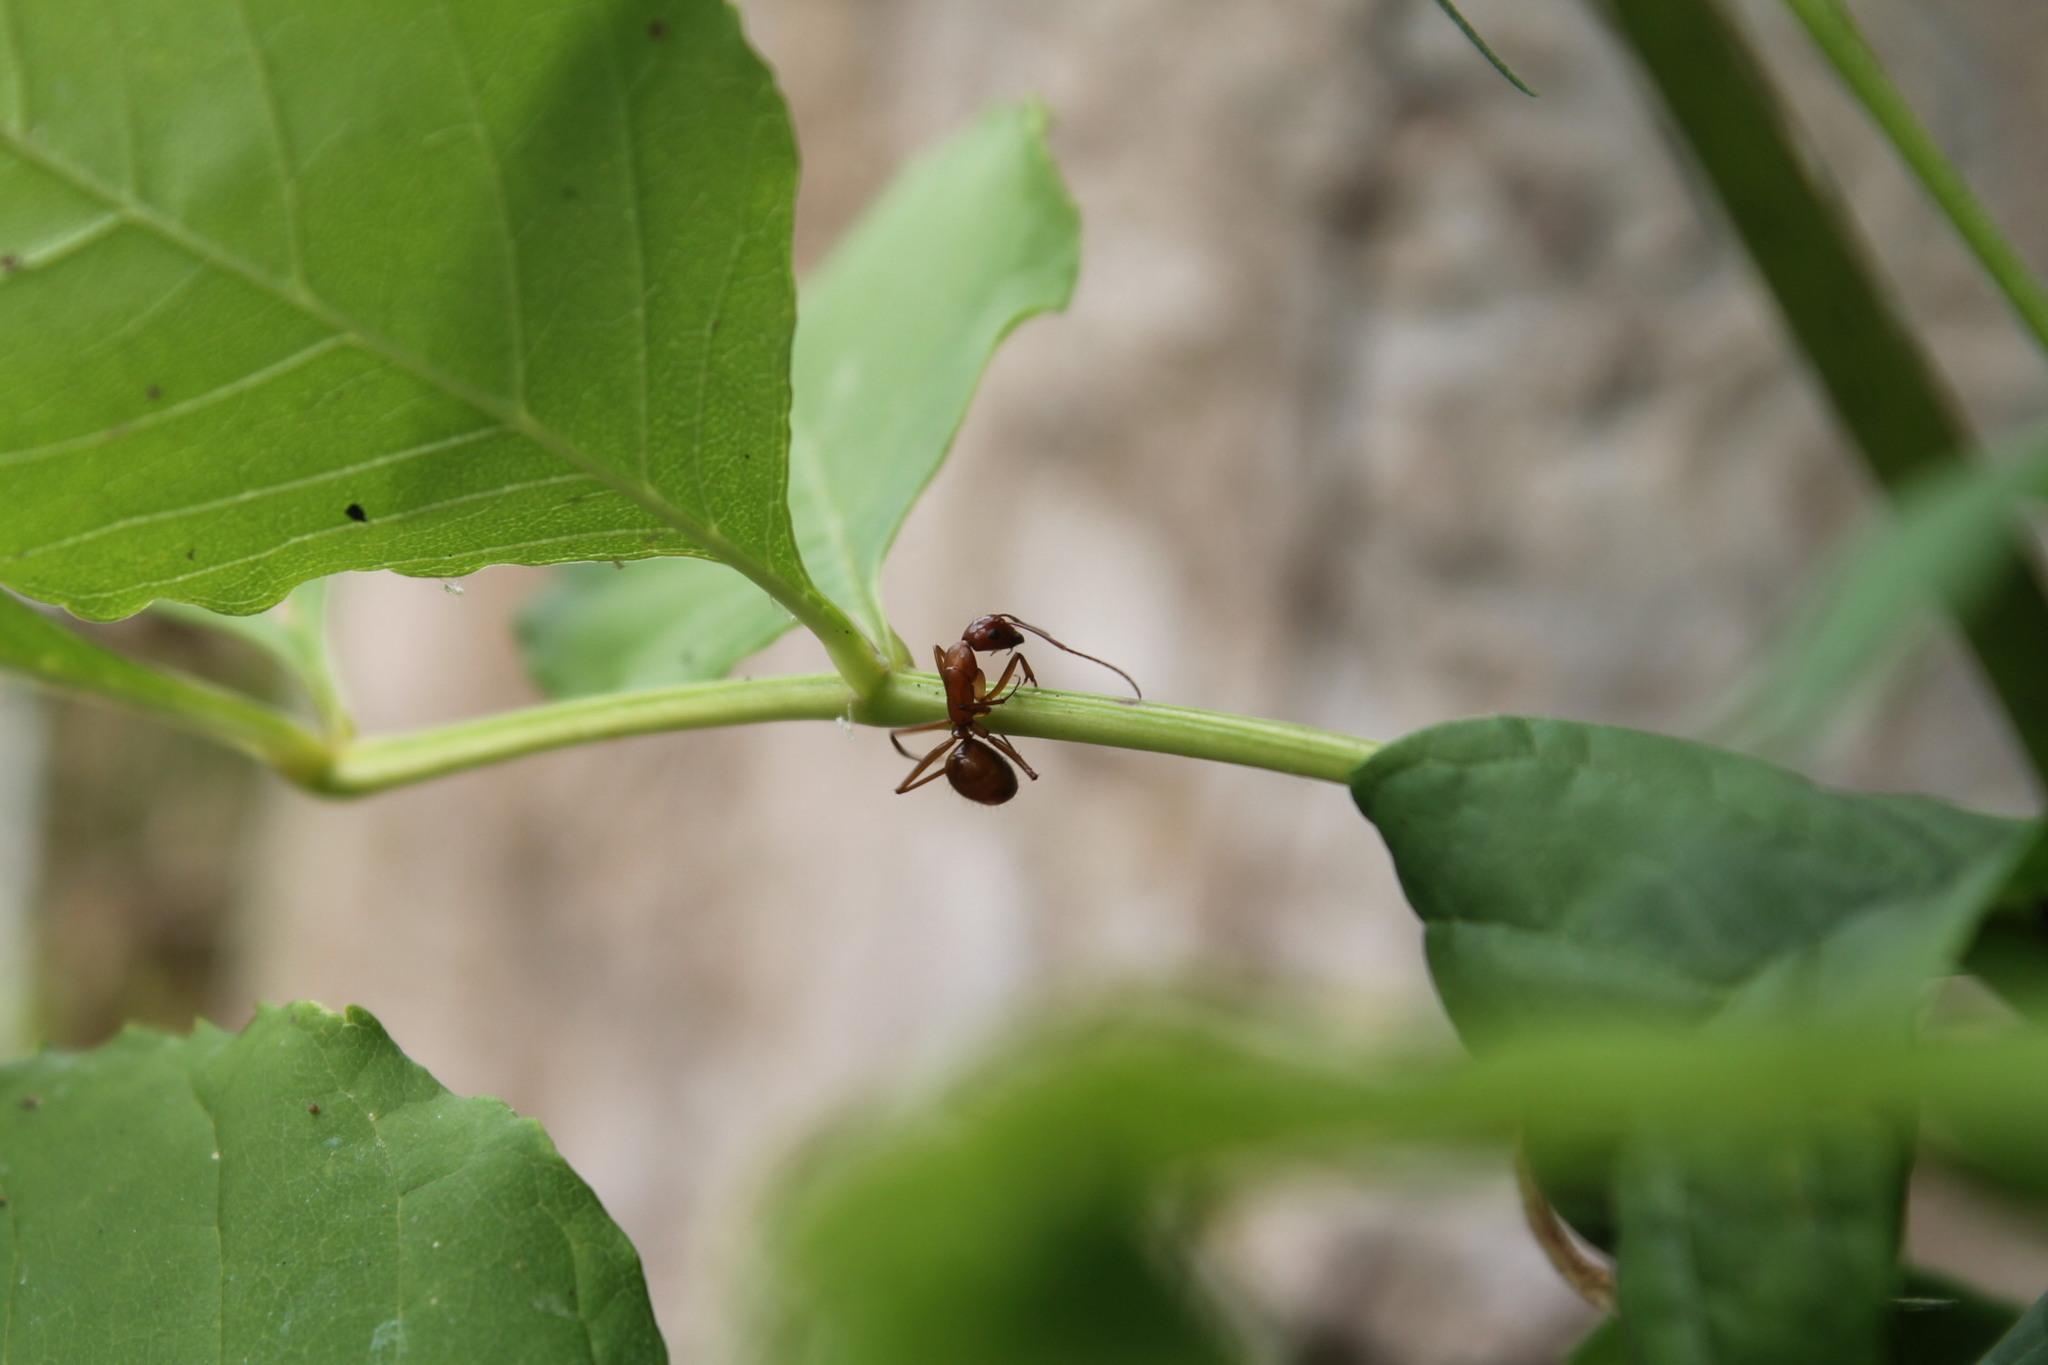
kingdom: Animalia
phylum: Arthropoda
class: Insecta
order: Hymenoptera
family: Formicidae
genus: Camponotus
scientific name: Camponotus castaneus
